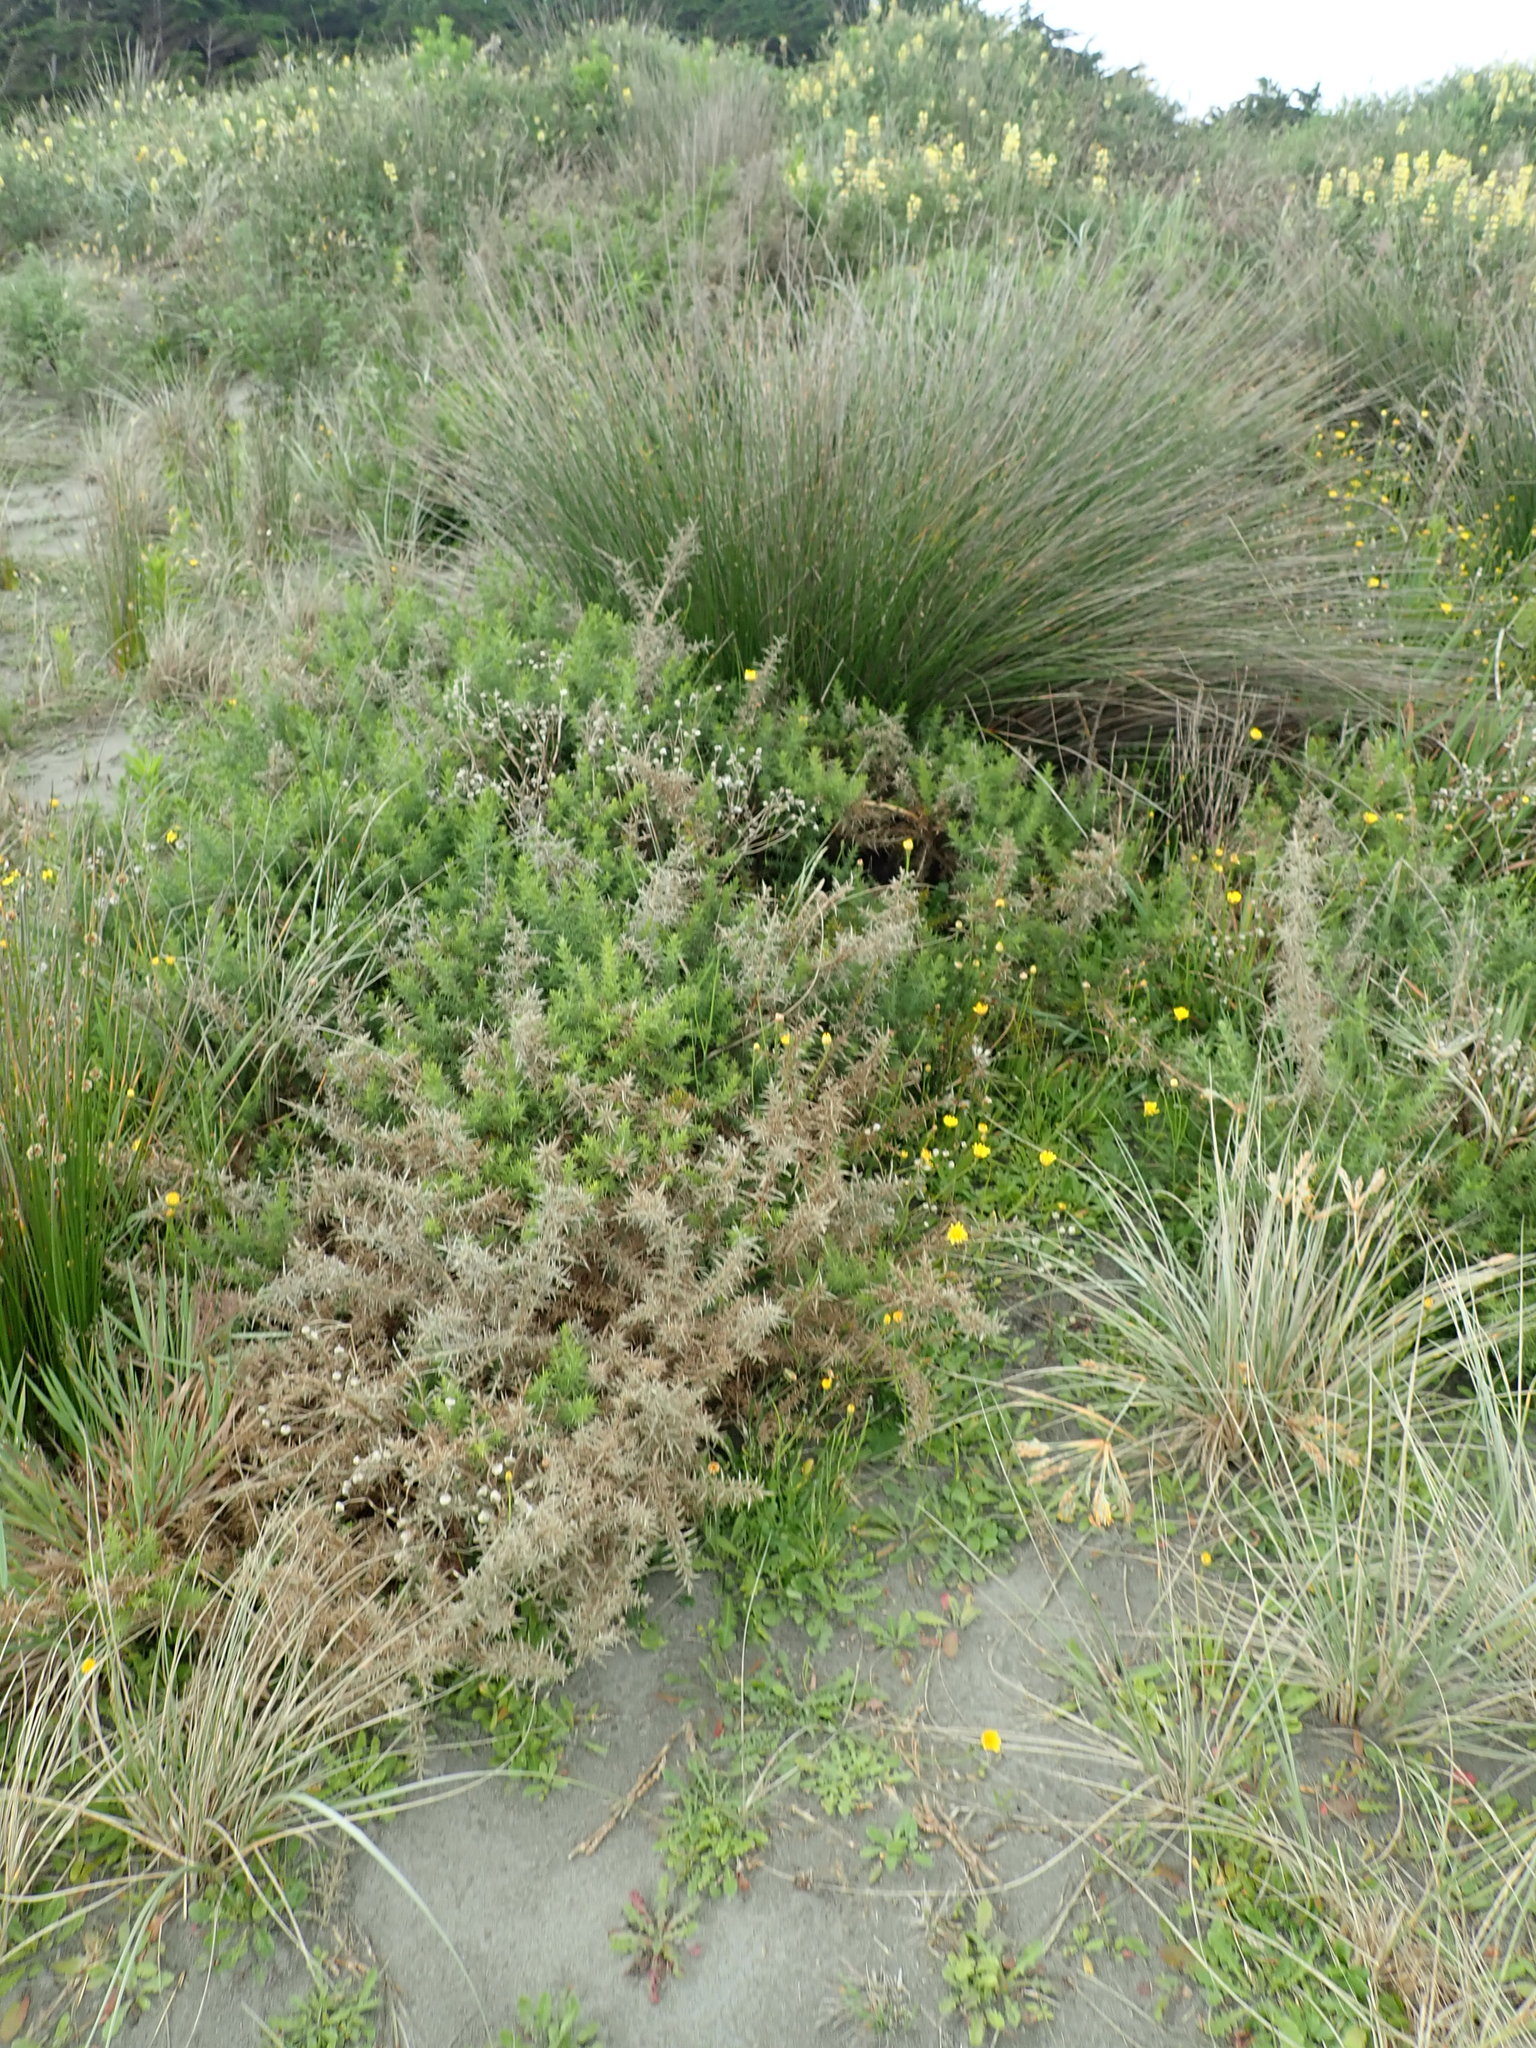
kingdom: Plantae
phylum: Tracheophyta
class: Magnoliopsida
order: Fabales
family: Fabaceae
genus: Ulex
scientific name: Ulex europaeus
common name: Common gorse
